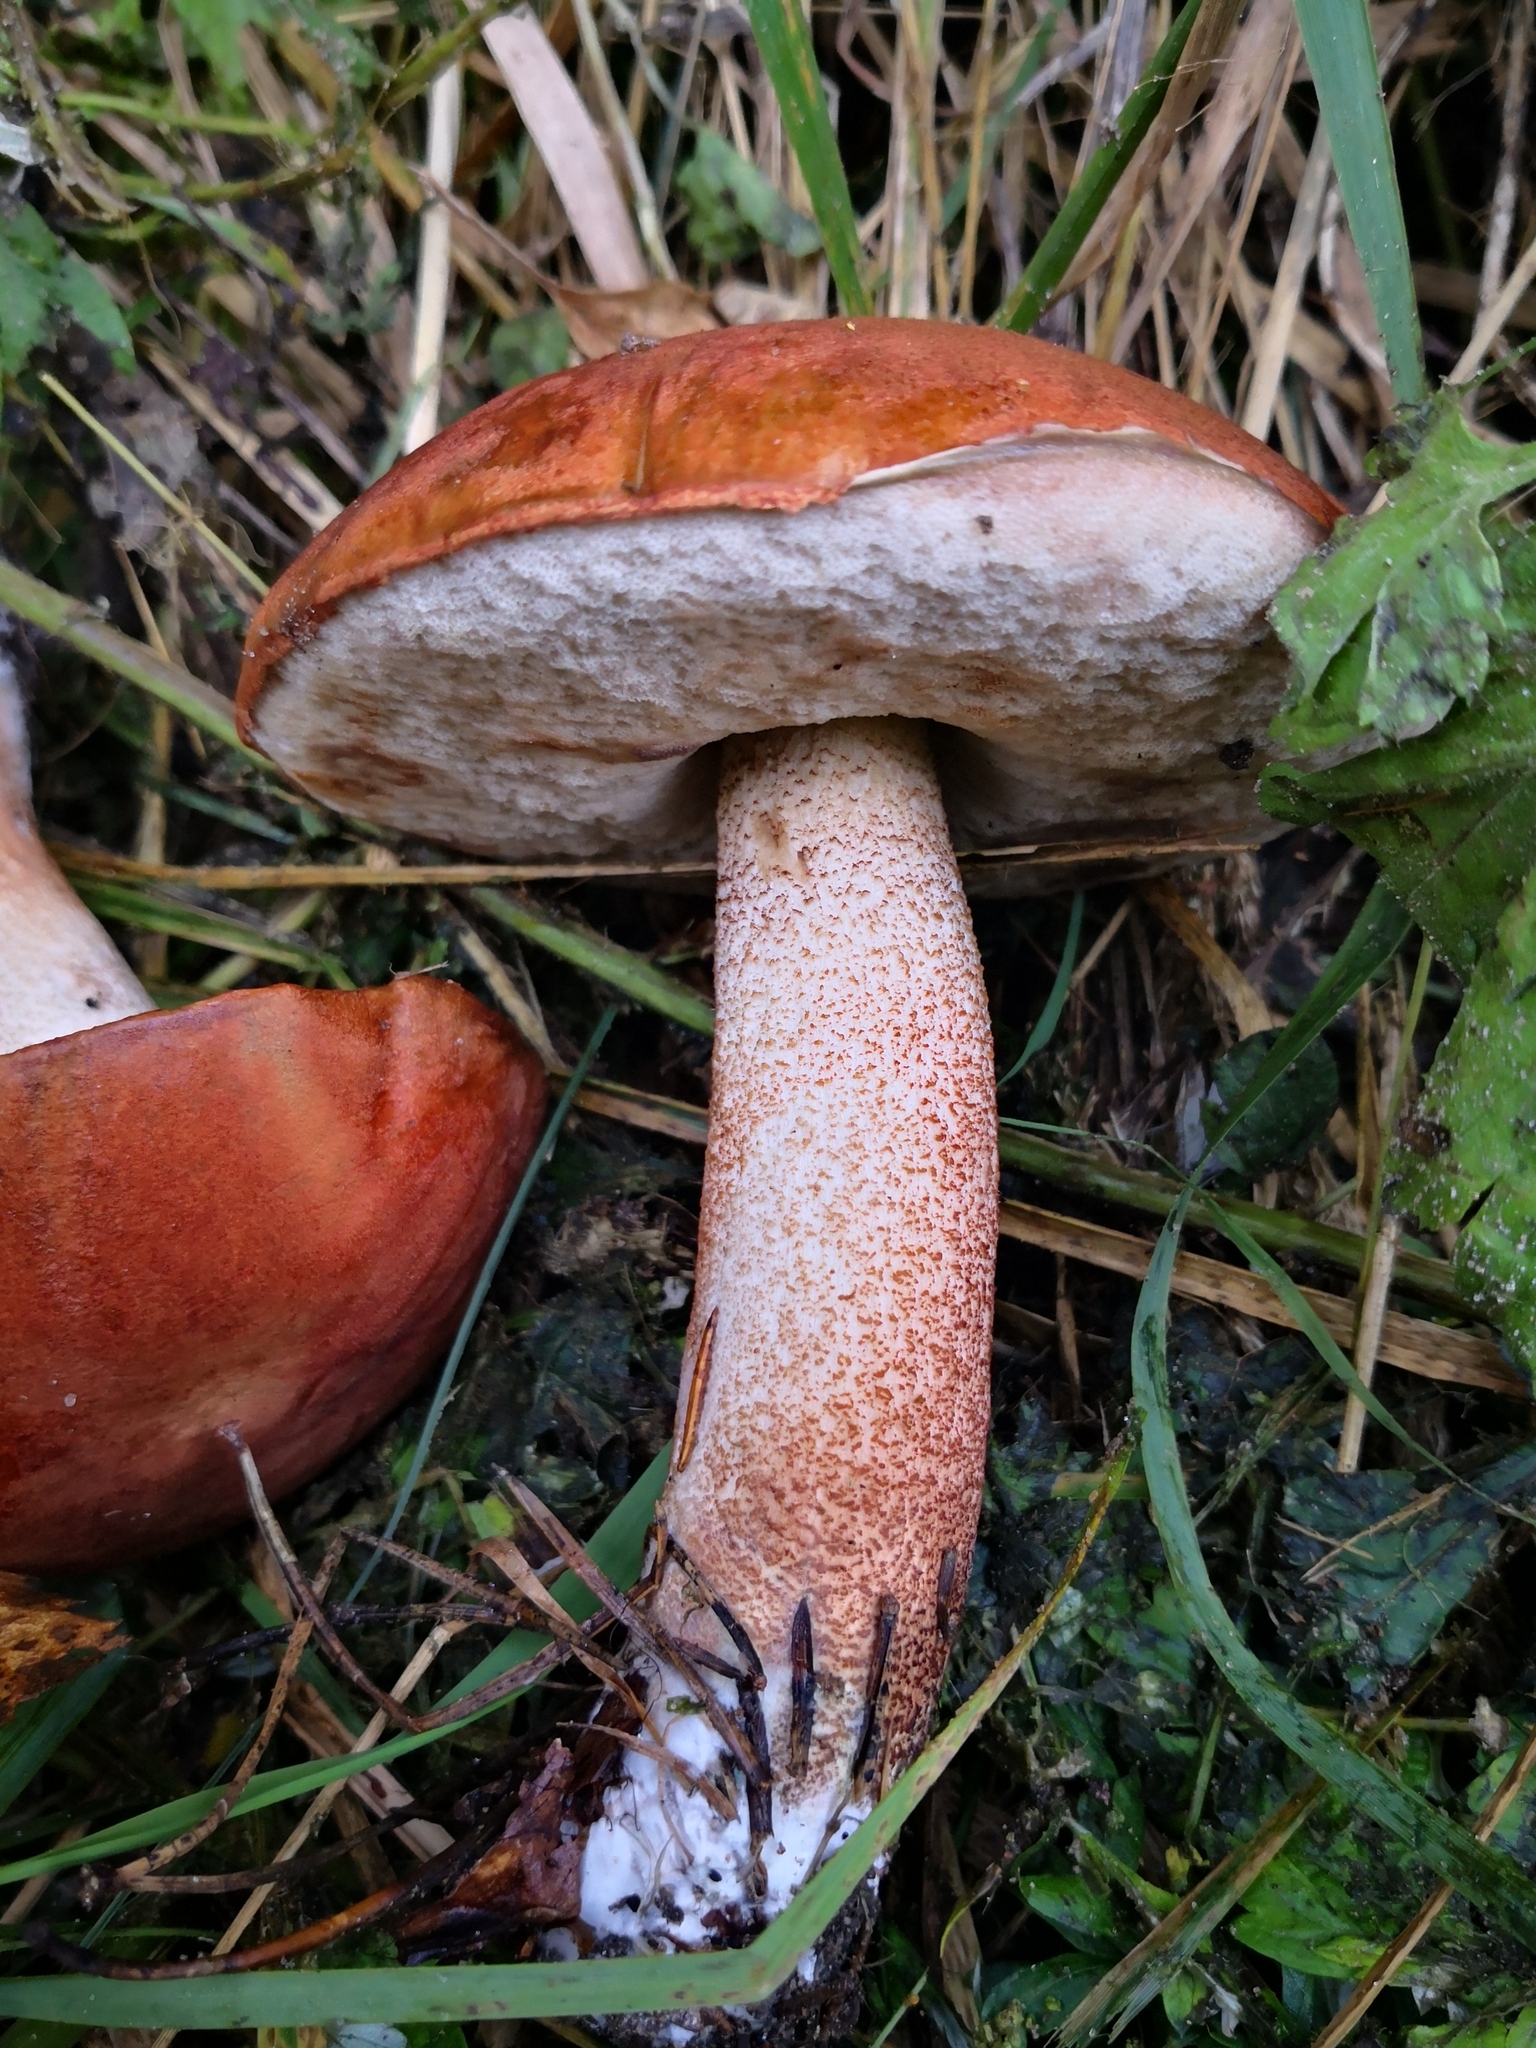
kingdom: Fungi
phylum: Basidiomycota
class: Agaricomycetes
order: Boletales
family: Boletaceae
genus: Leccinum
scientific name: Leccinum aurantiacum
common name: Orange bolete
